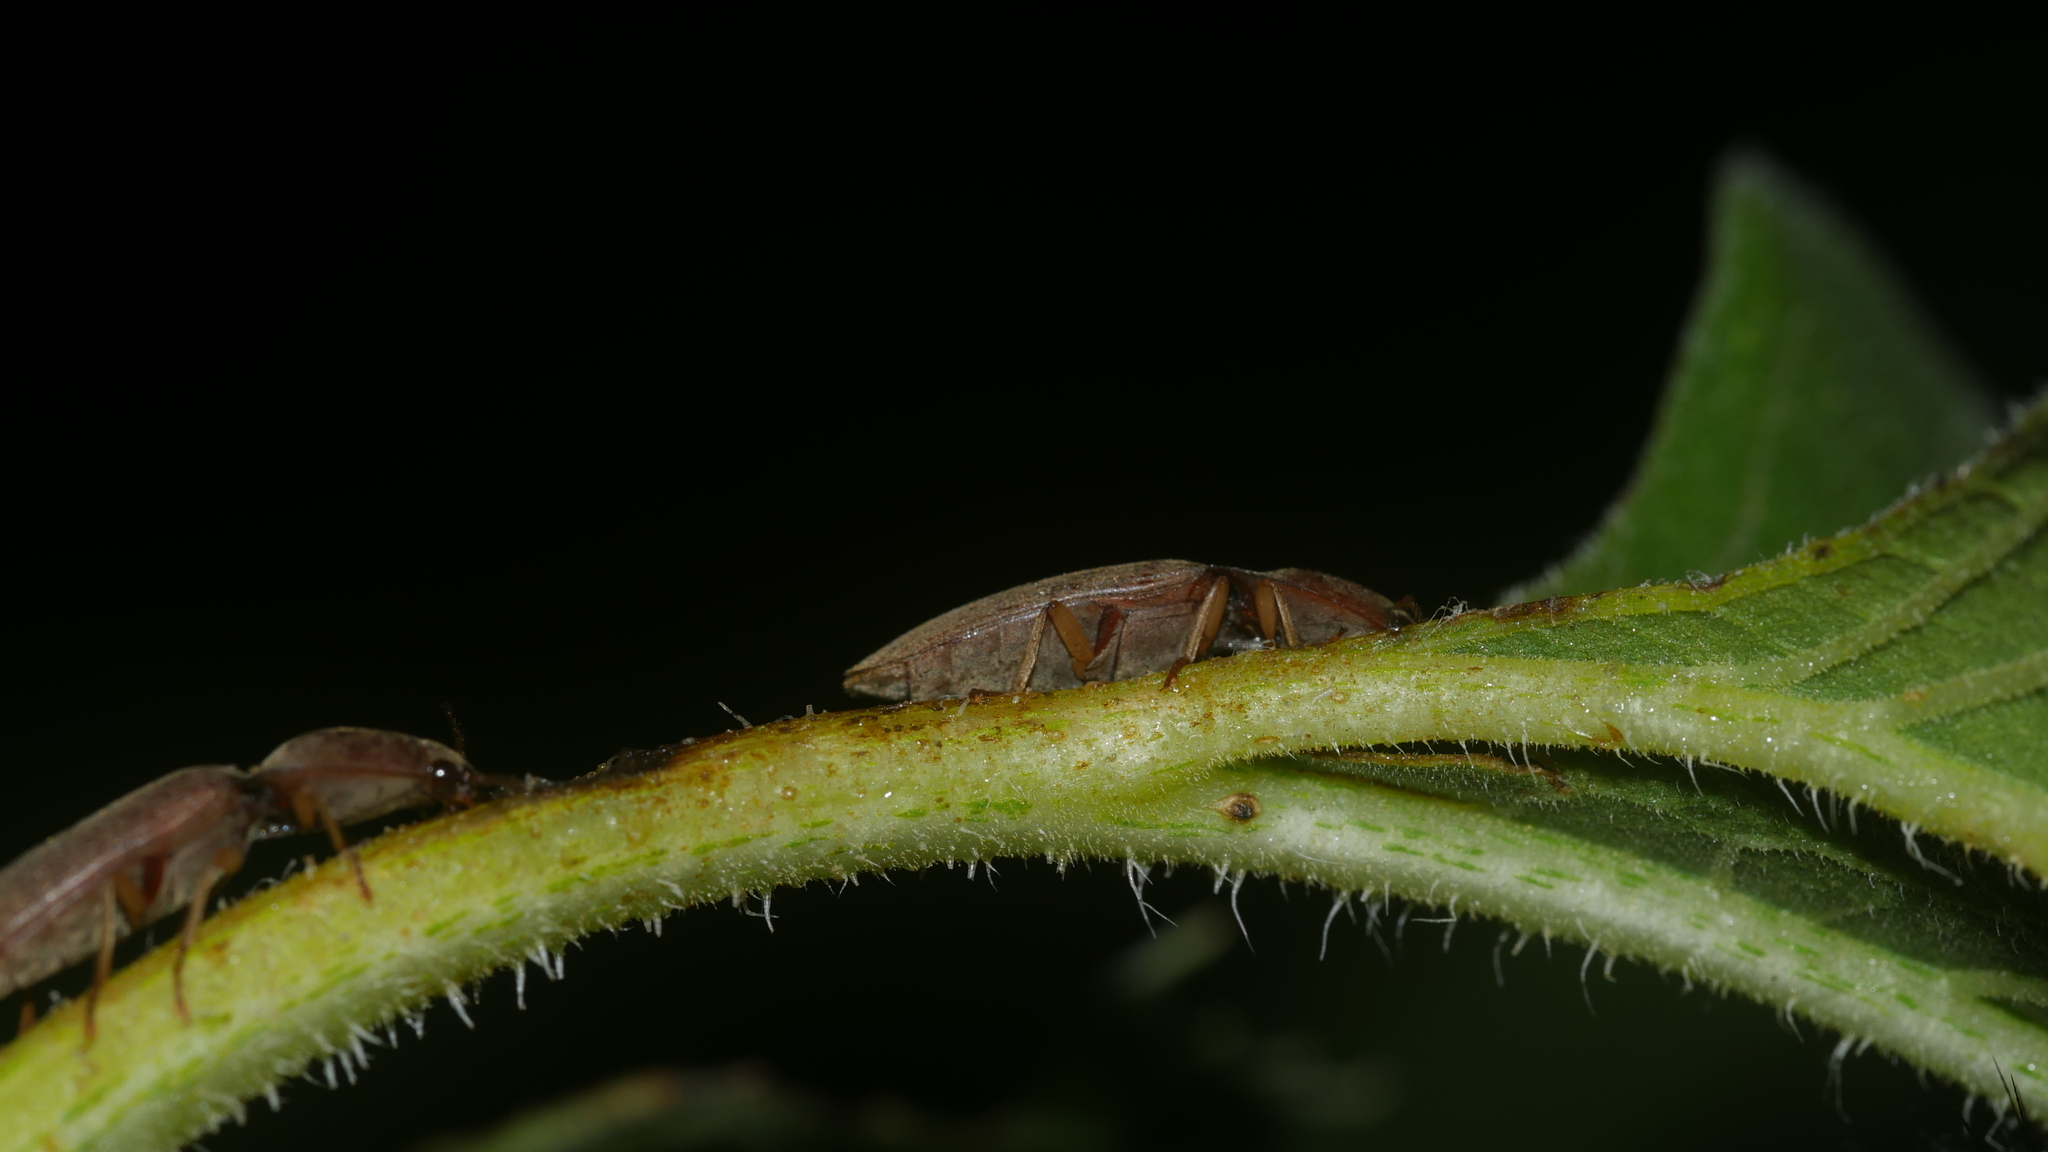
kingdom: Animalia
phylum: Arthropoda
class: Insecta
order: Coleoptera
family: Elateridae
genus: Monocrepidius
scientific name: Monocrepidius lividus
